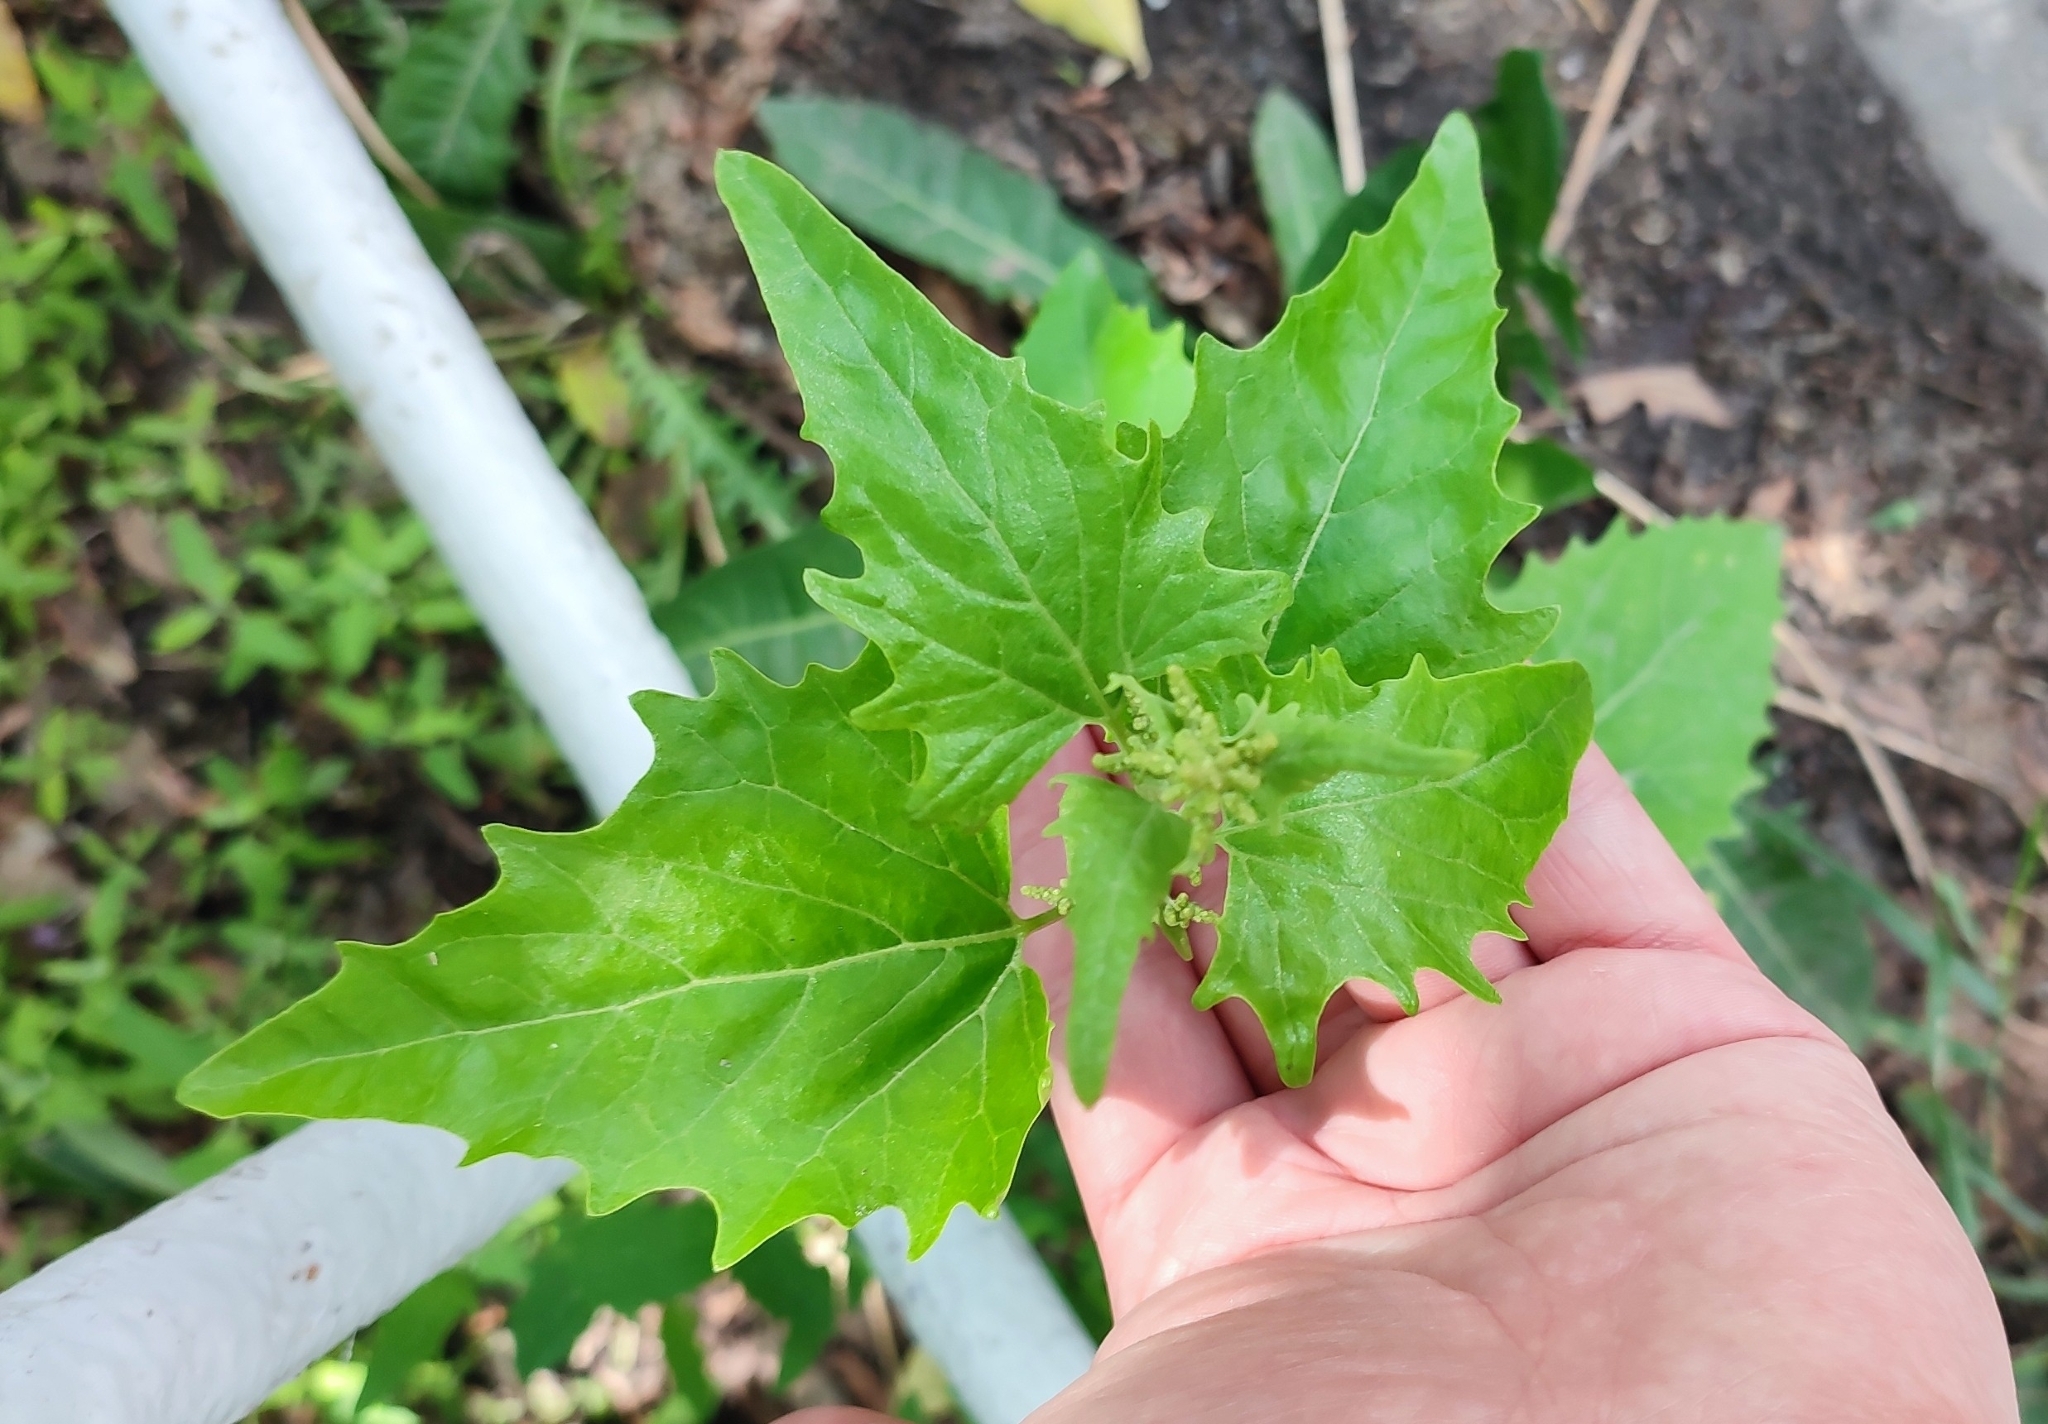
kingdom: Plantae
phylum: Tracheophyta
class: Magnoliopsida
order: Caryophyllales
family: Amaranthaceae
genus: Atriplex
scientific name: Atriplex sagittata
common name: Purple orache
